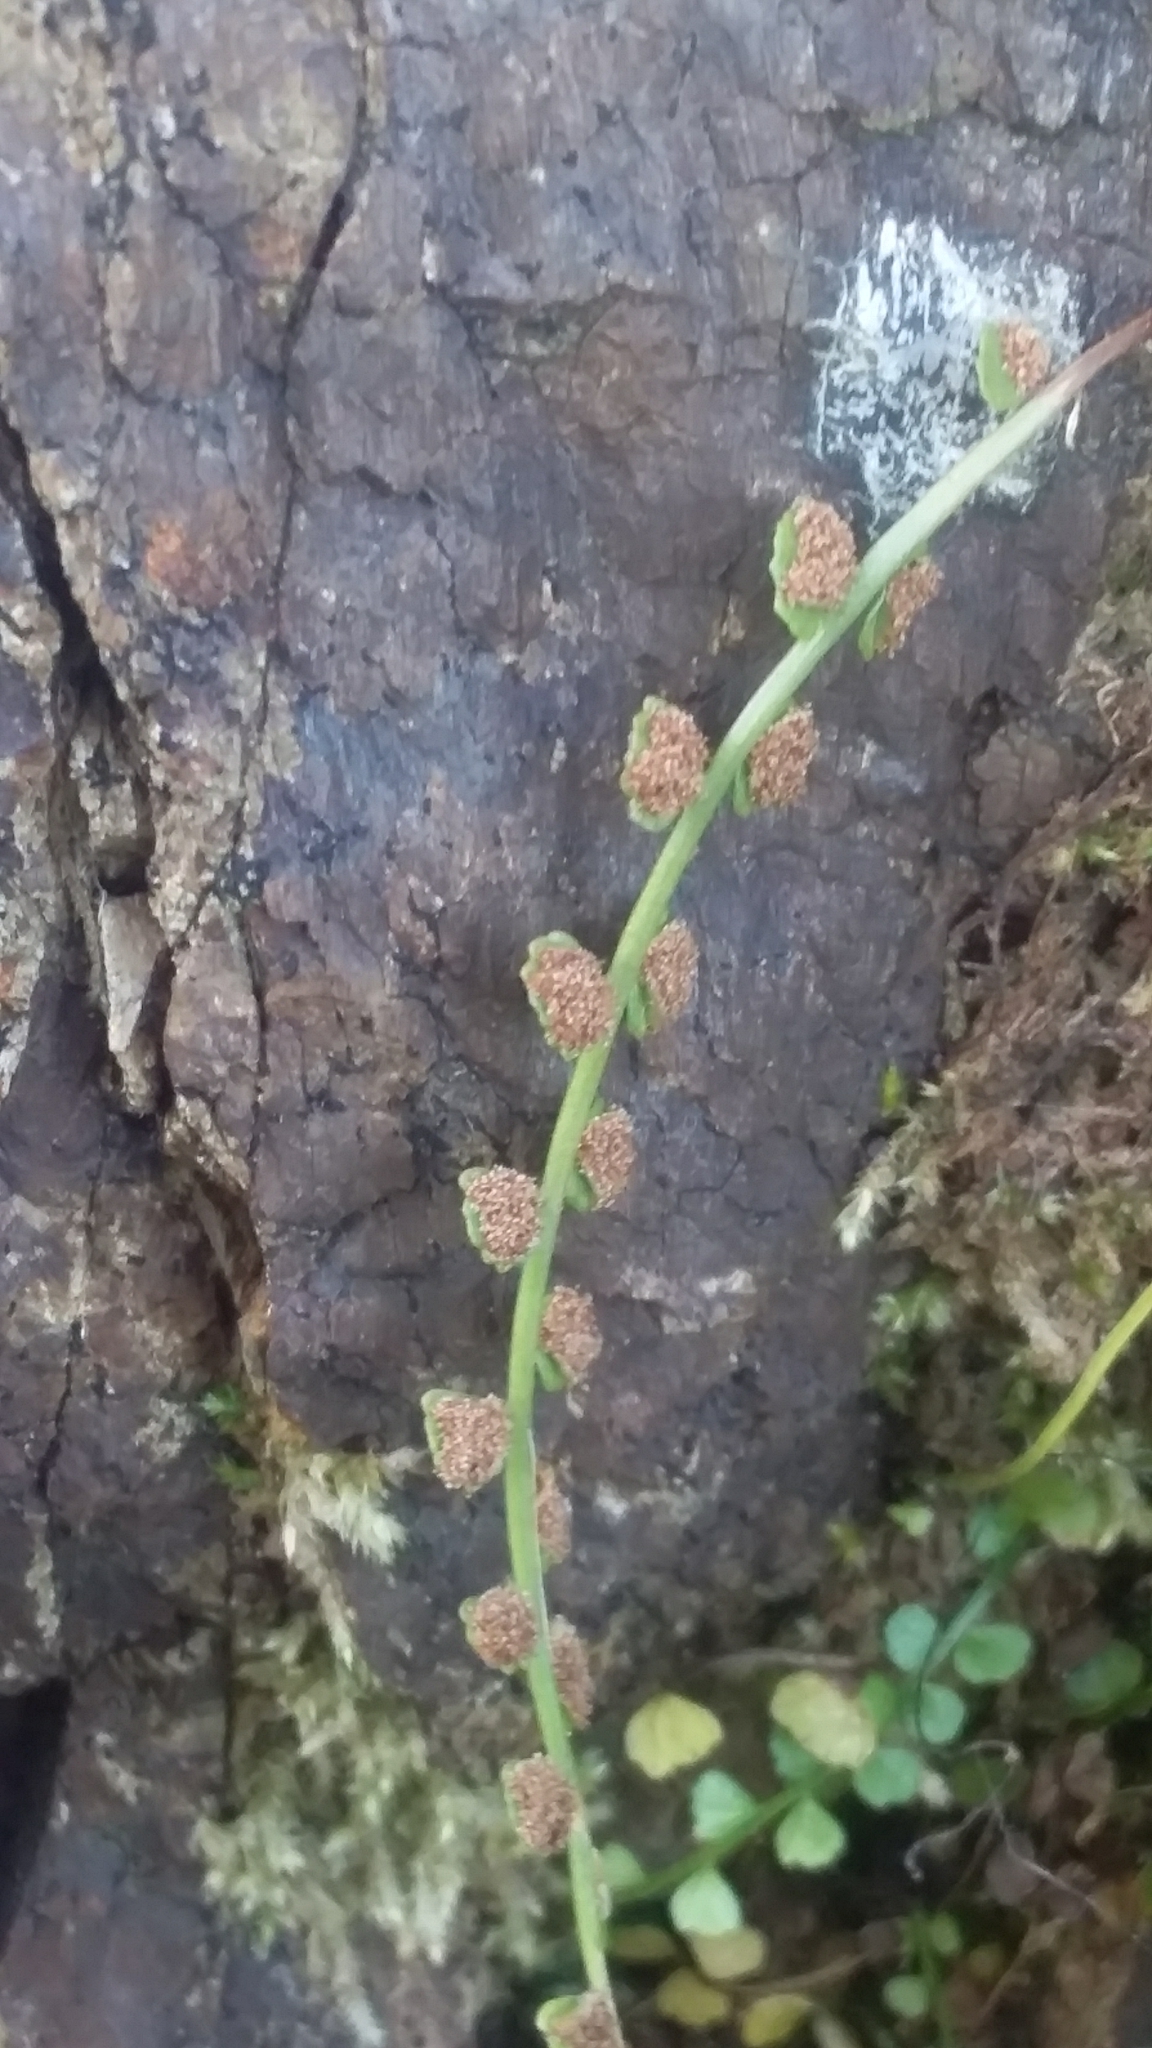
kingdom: Plantae
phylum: Tracheophyta
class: Polypodiopsida
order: Polypodiales
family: Aspleniaceae
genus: Asplenium
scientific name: Asplenium flabellifolium
